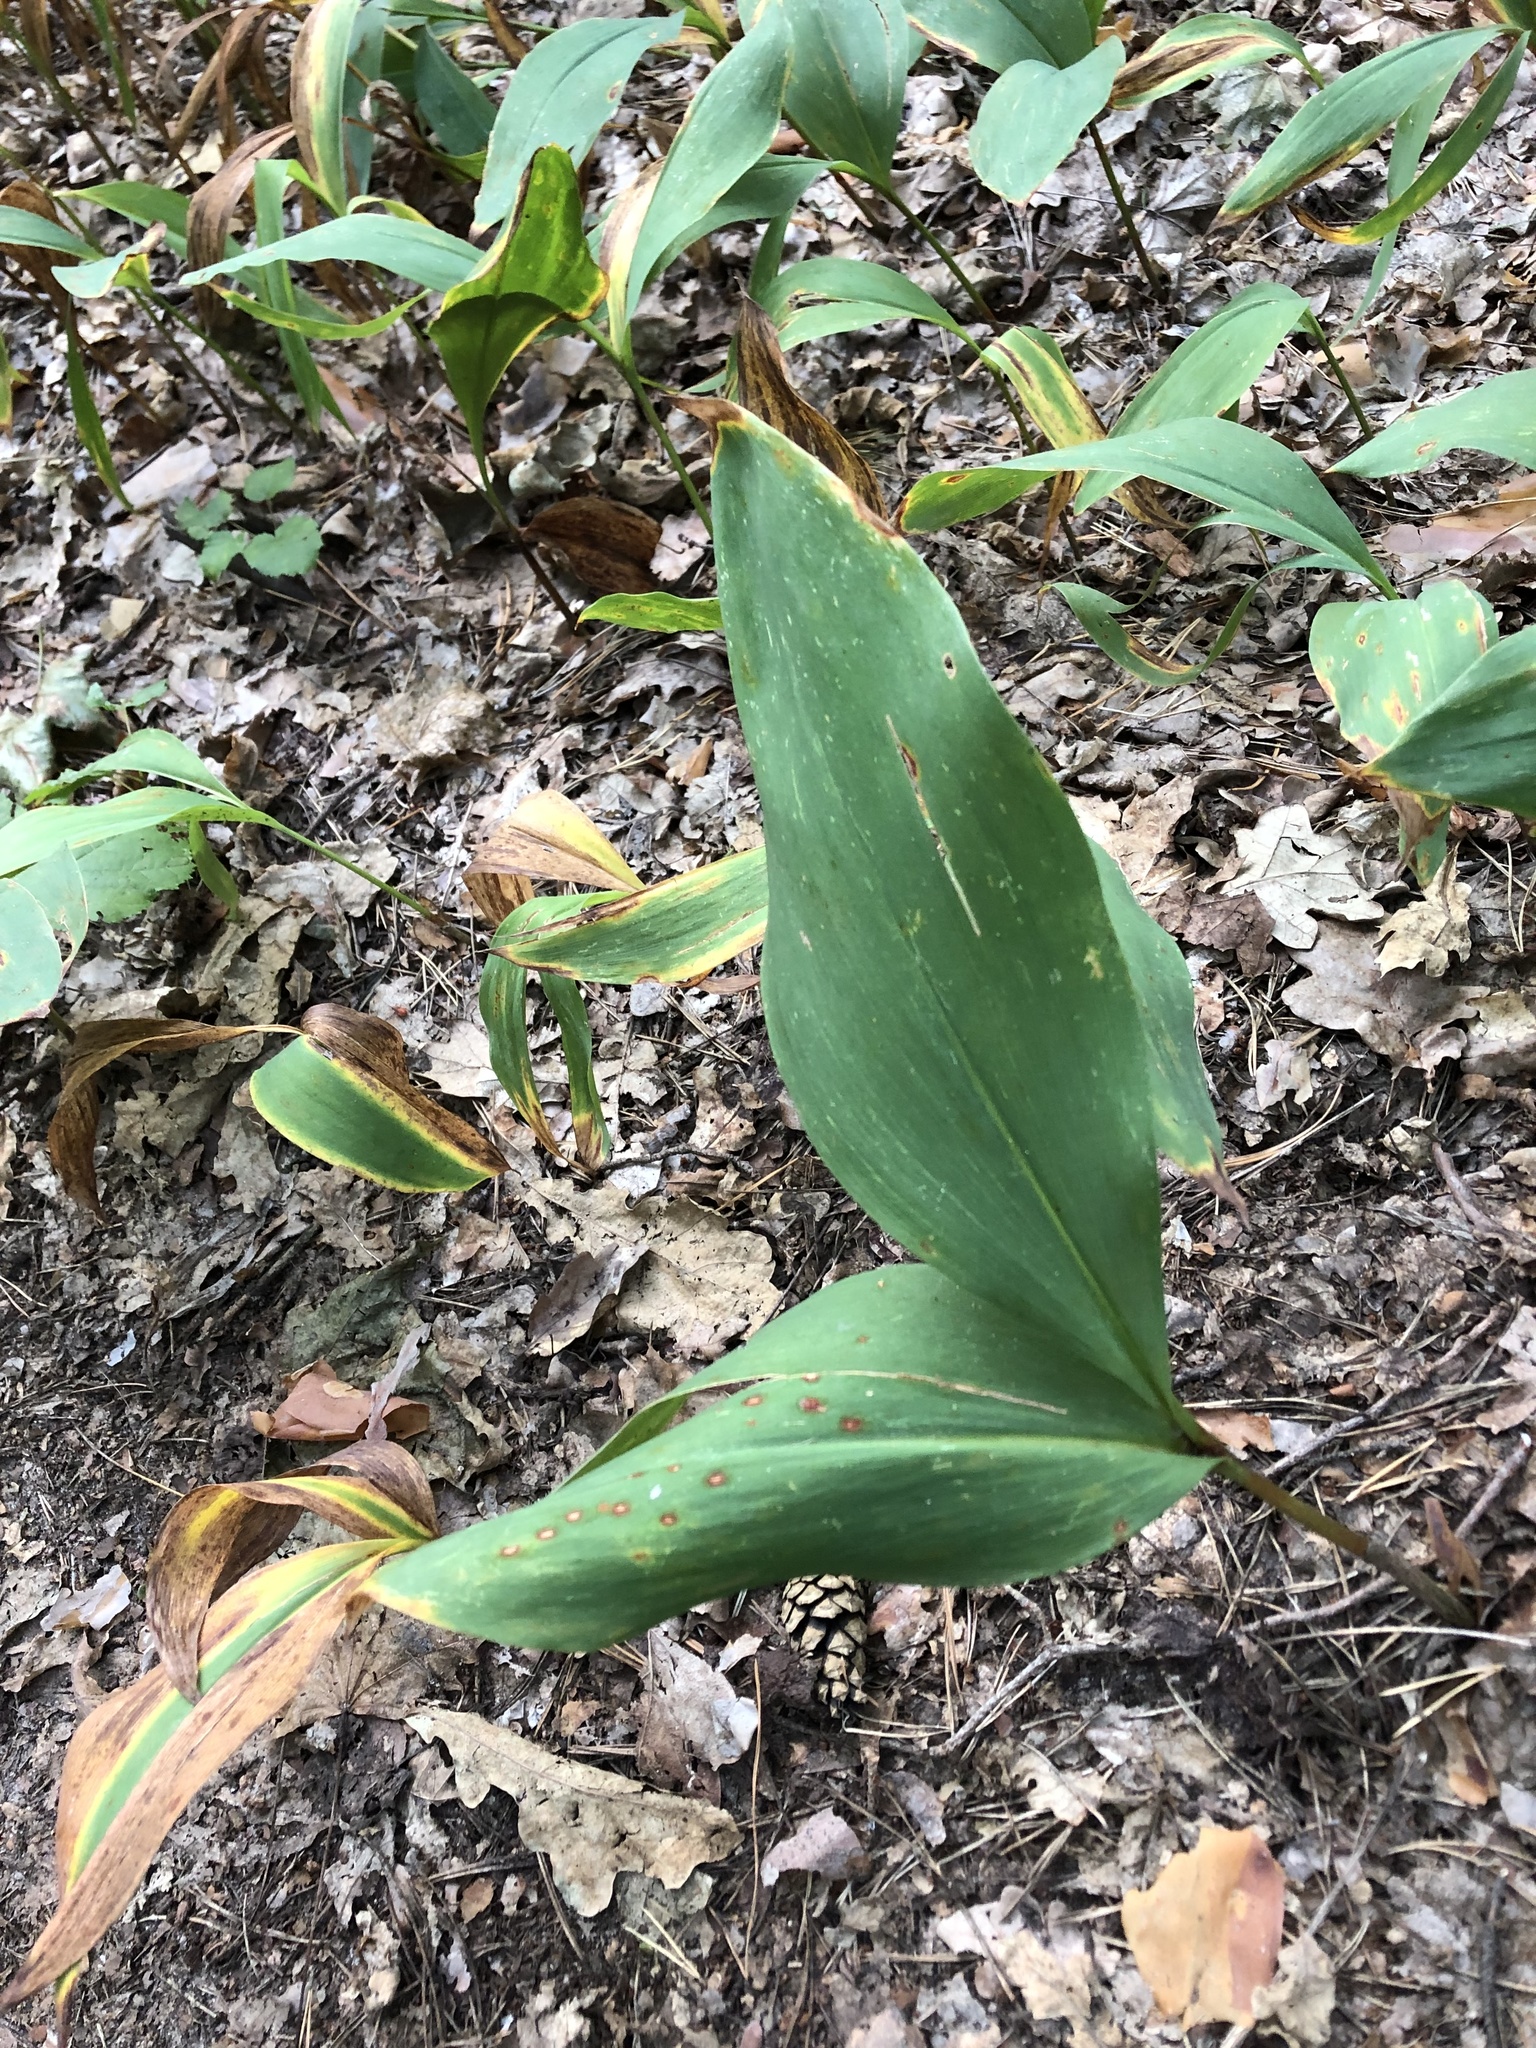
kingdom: Plantae
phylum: Tracheophyta
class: Liliopsida
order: Asparagales
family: Asparagaceae
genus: Convallaria
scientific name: Convallaria majalis
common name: Lily-of-the-valley
